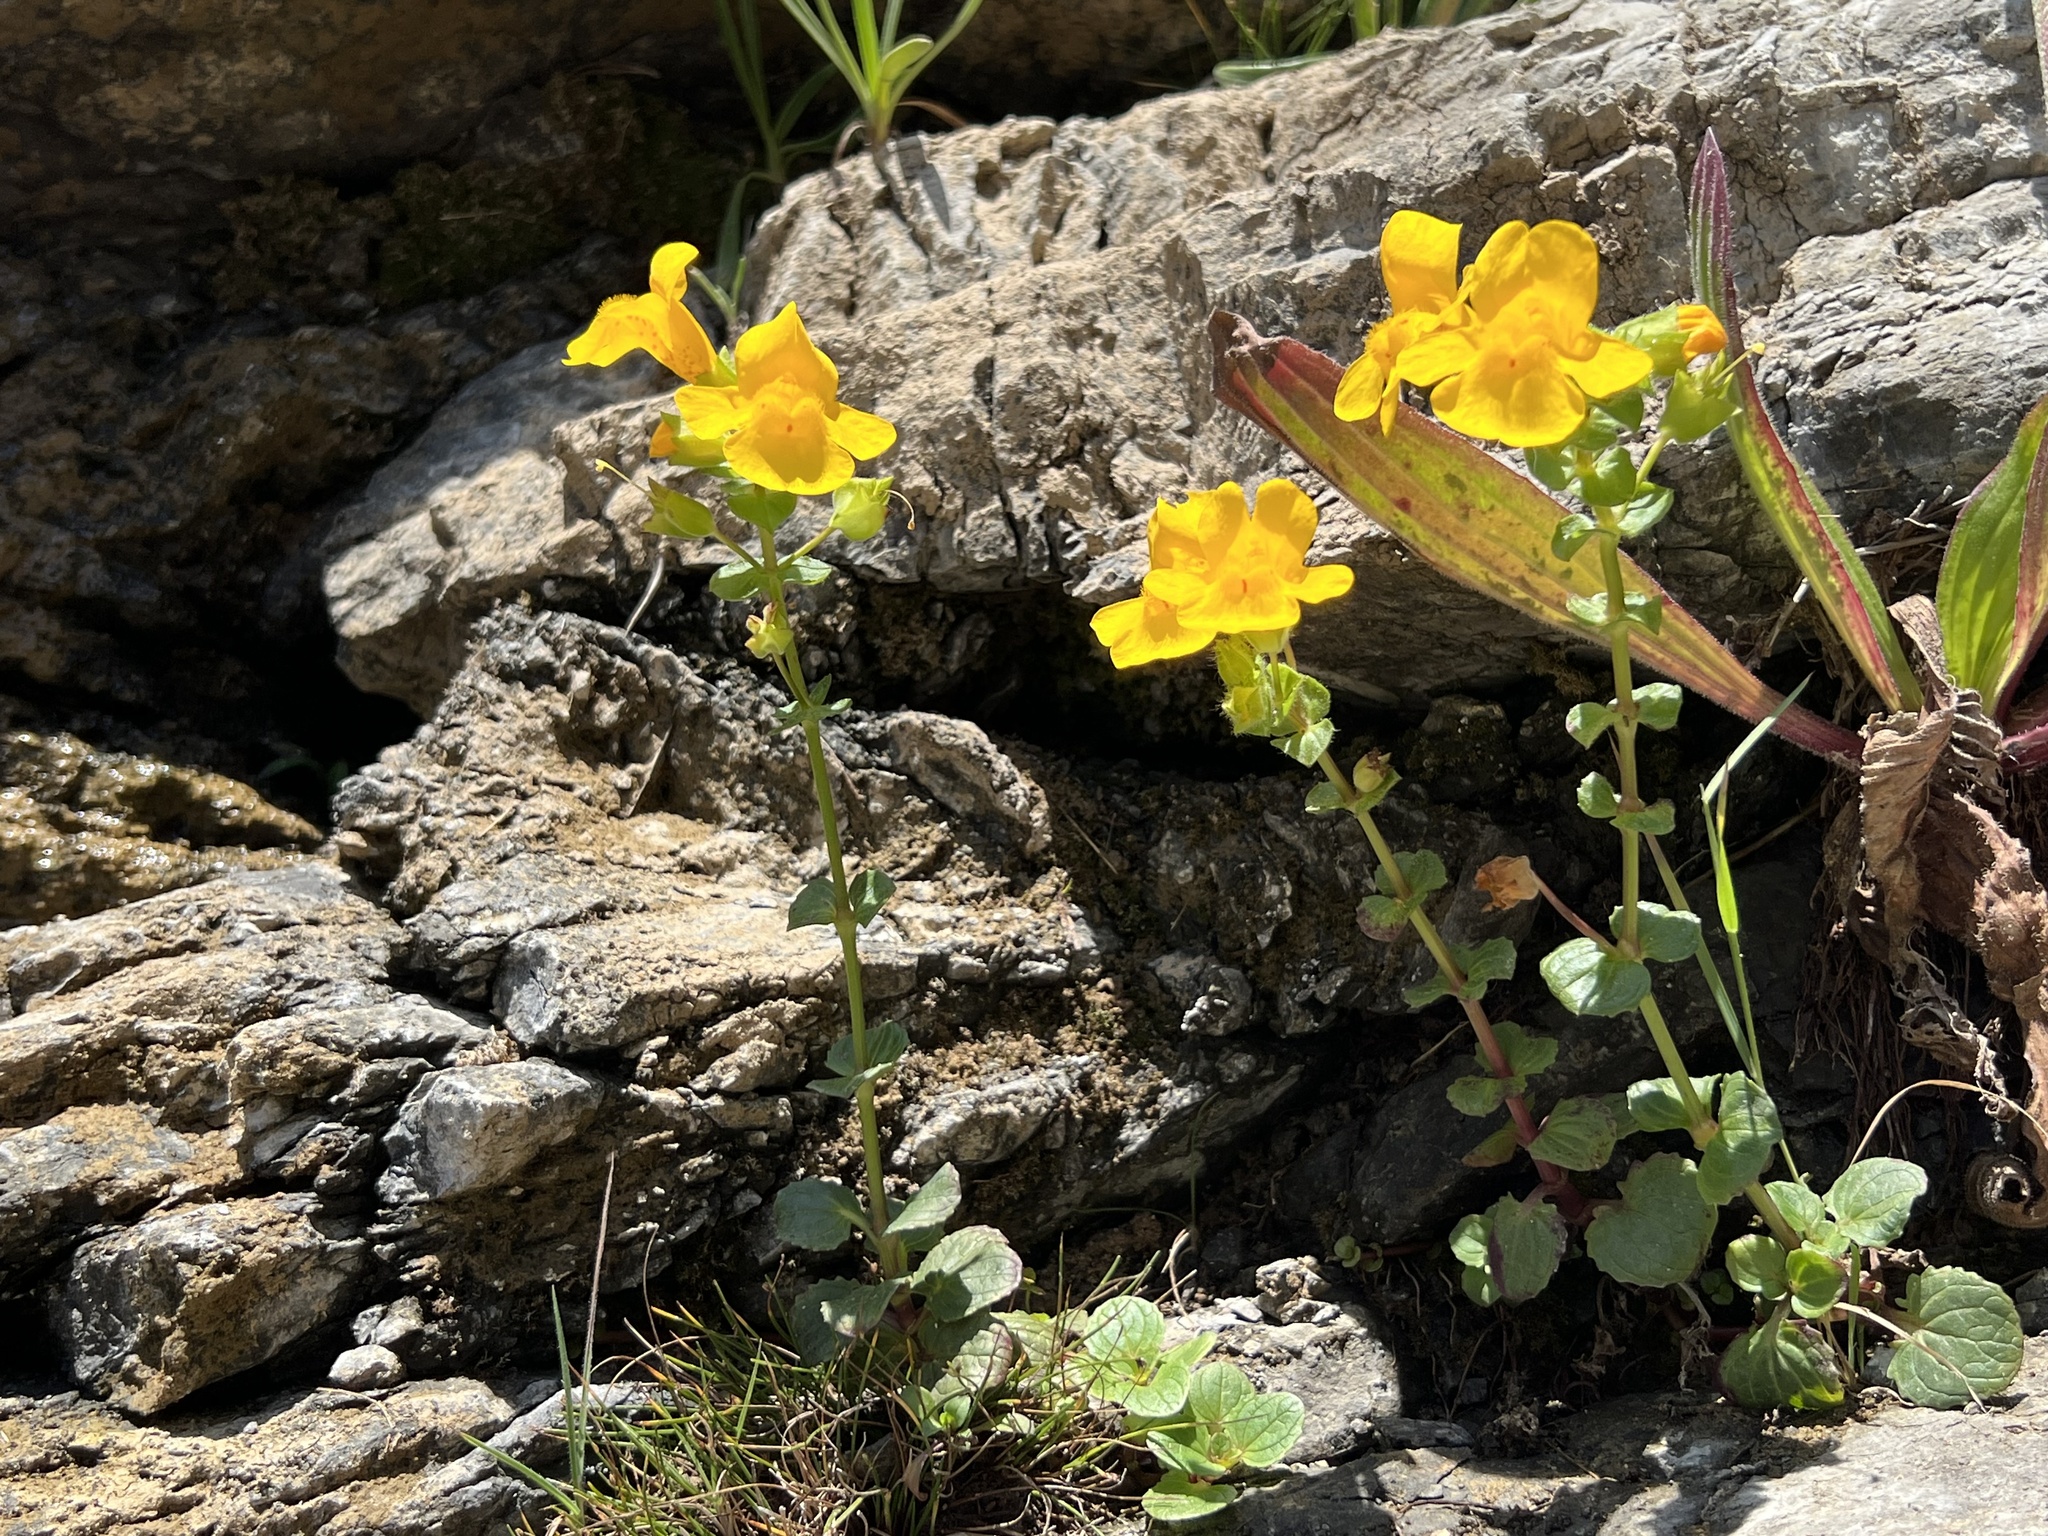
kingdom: Plantae
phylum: Tracheophyta
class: Magnoliopsida
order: Lamiales
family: Phrymaceae
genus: Erythranthe
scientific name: Erythranthe grandis
